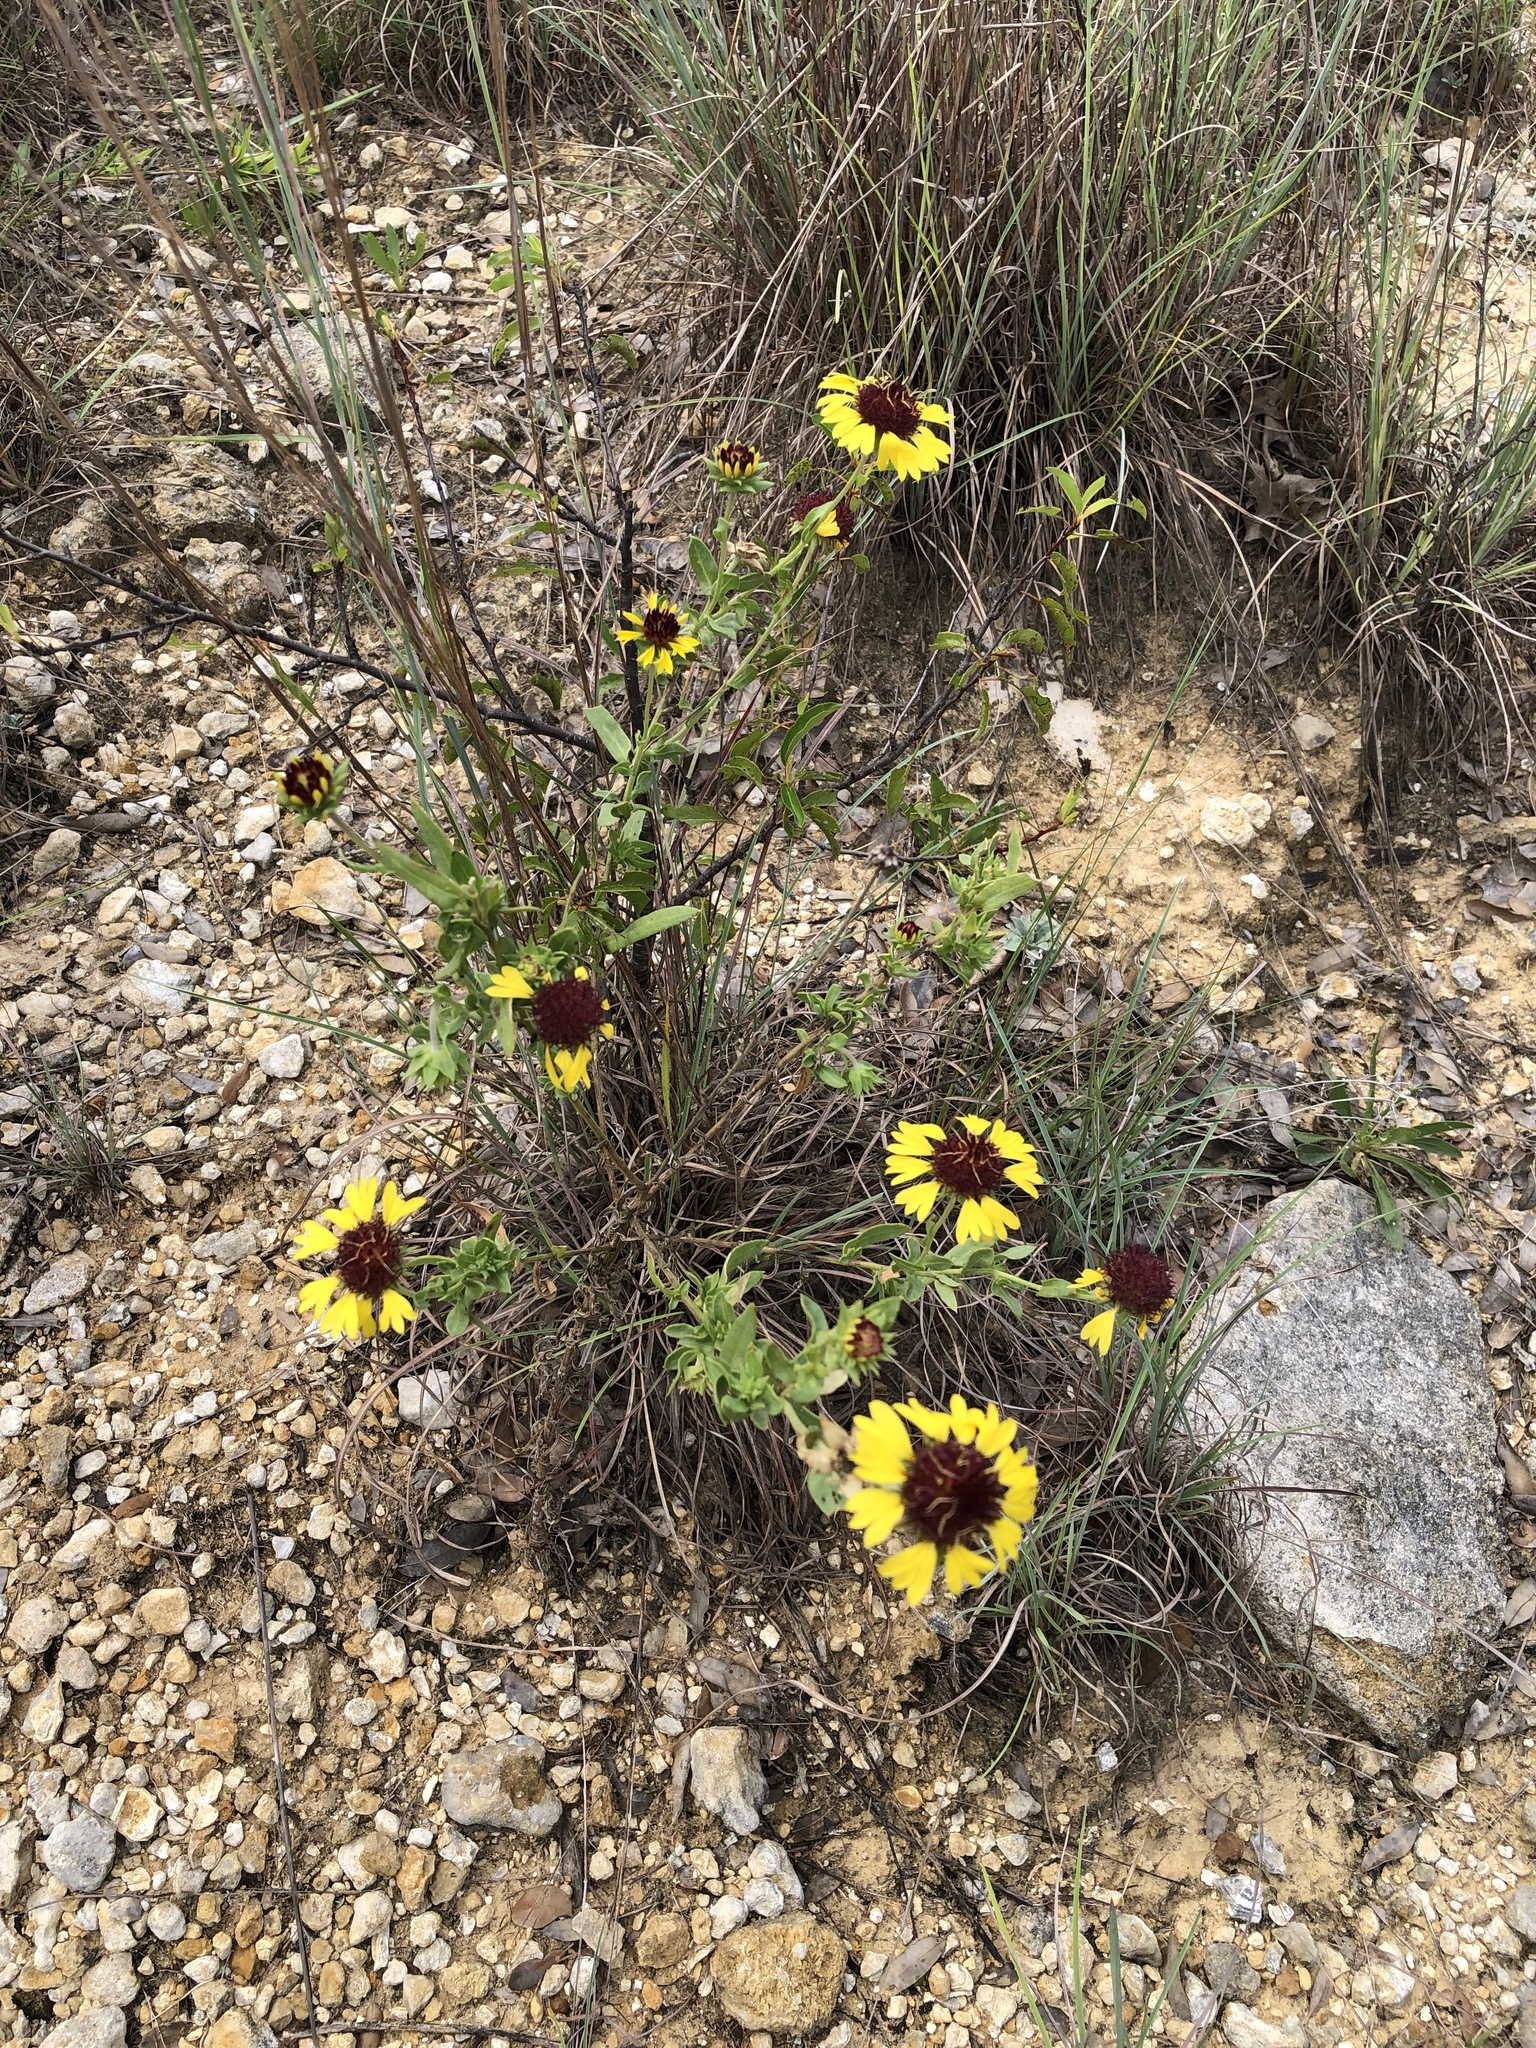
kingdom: Plantae
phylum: Tracheophyta
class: Magnoliopsida
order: Asterales
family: Asteraceae
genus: Gaillardia
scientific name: Gaillardia aestivalis
